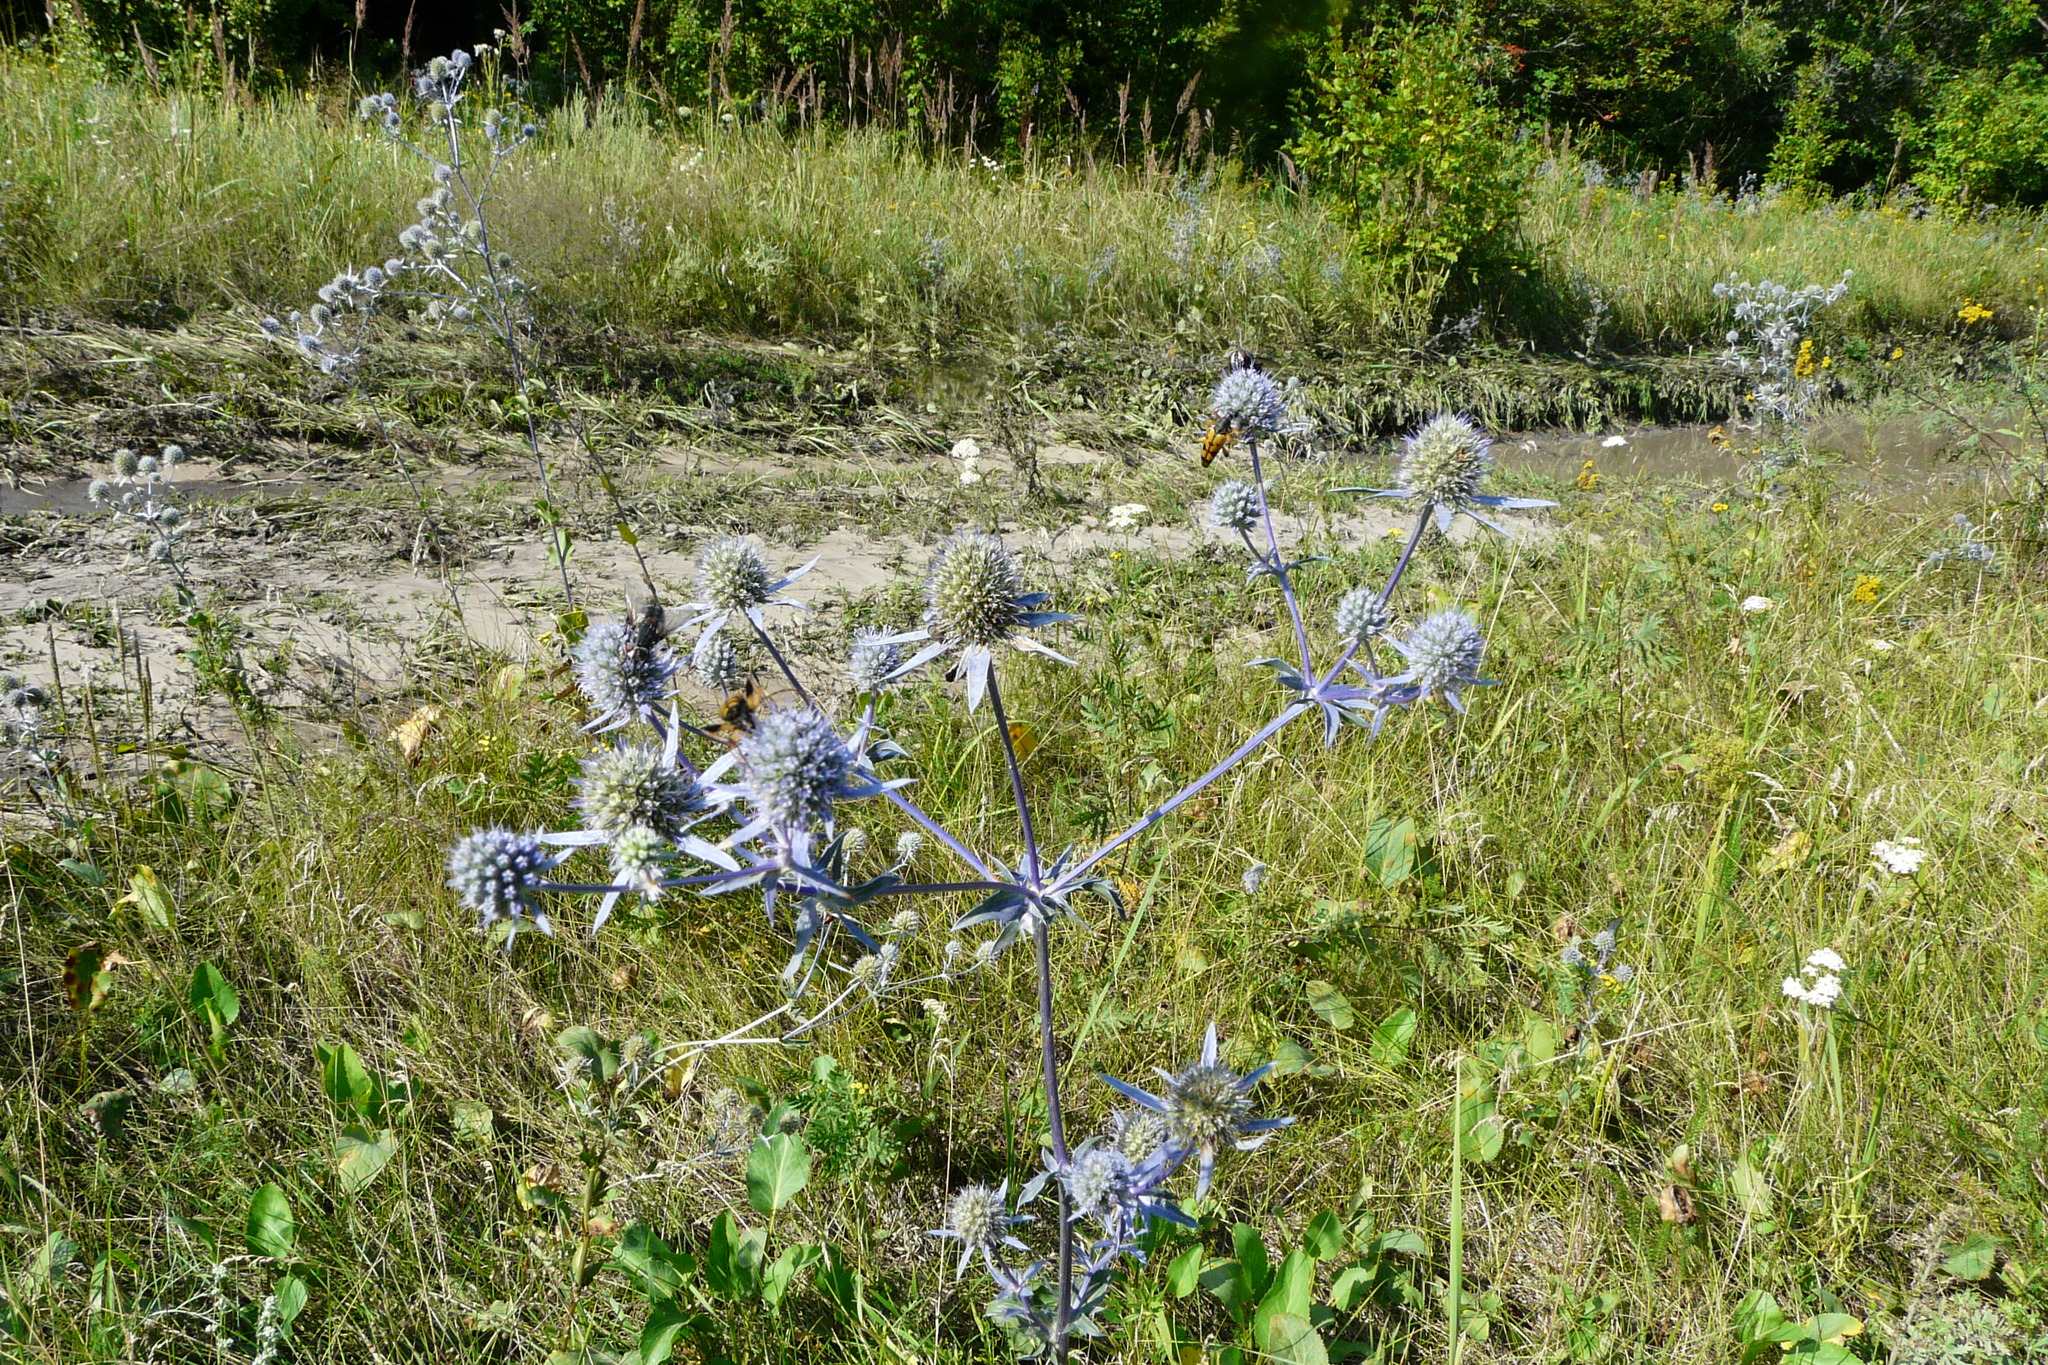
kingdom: Plantae
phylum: Tracheophyta
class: Magnoliopsida
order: Apiales
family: Apiaceae
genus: Eryngium
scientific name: Eryngium planum
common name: Blue eryngo
